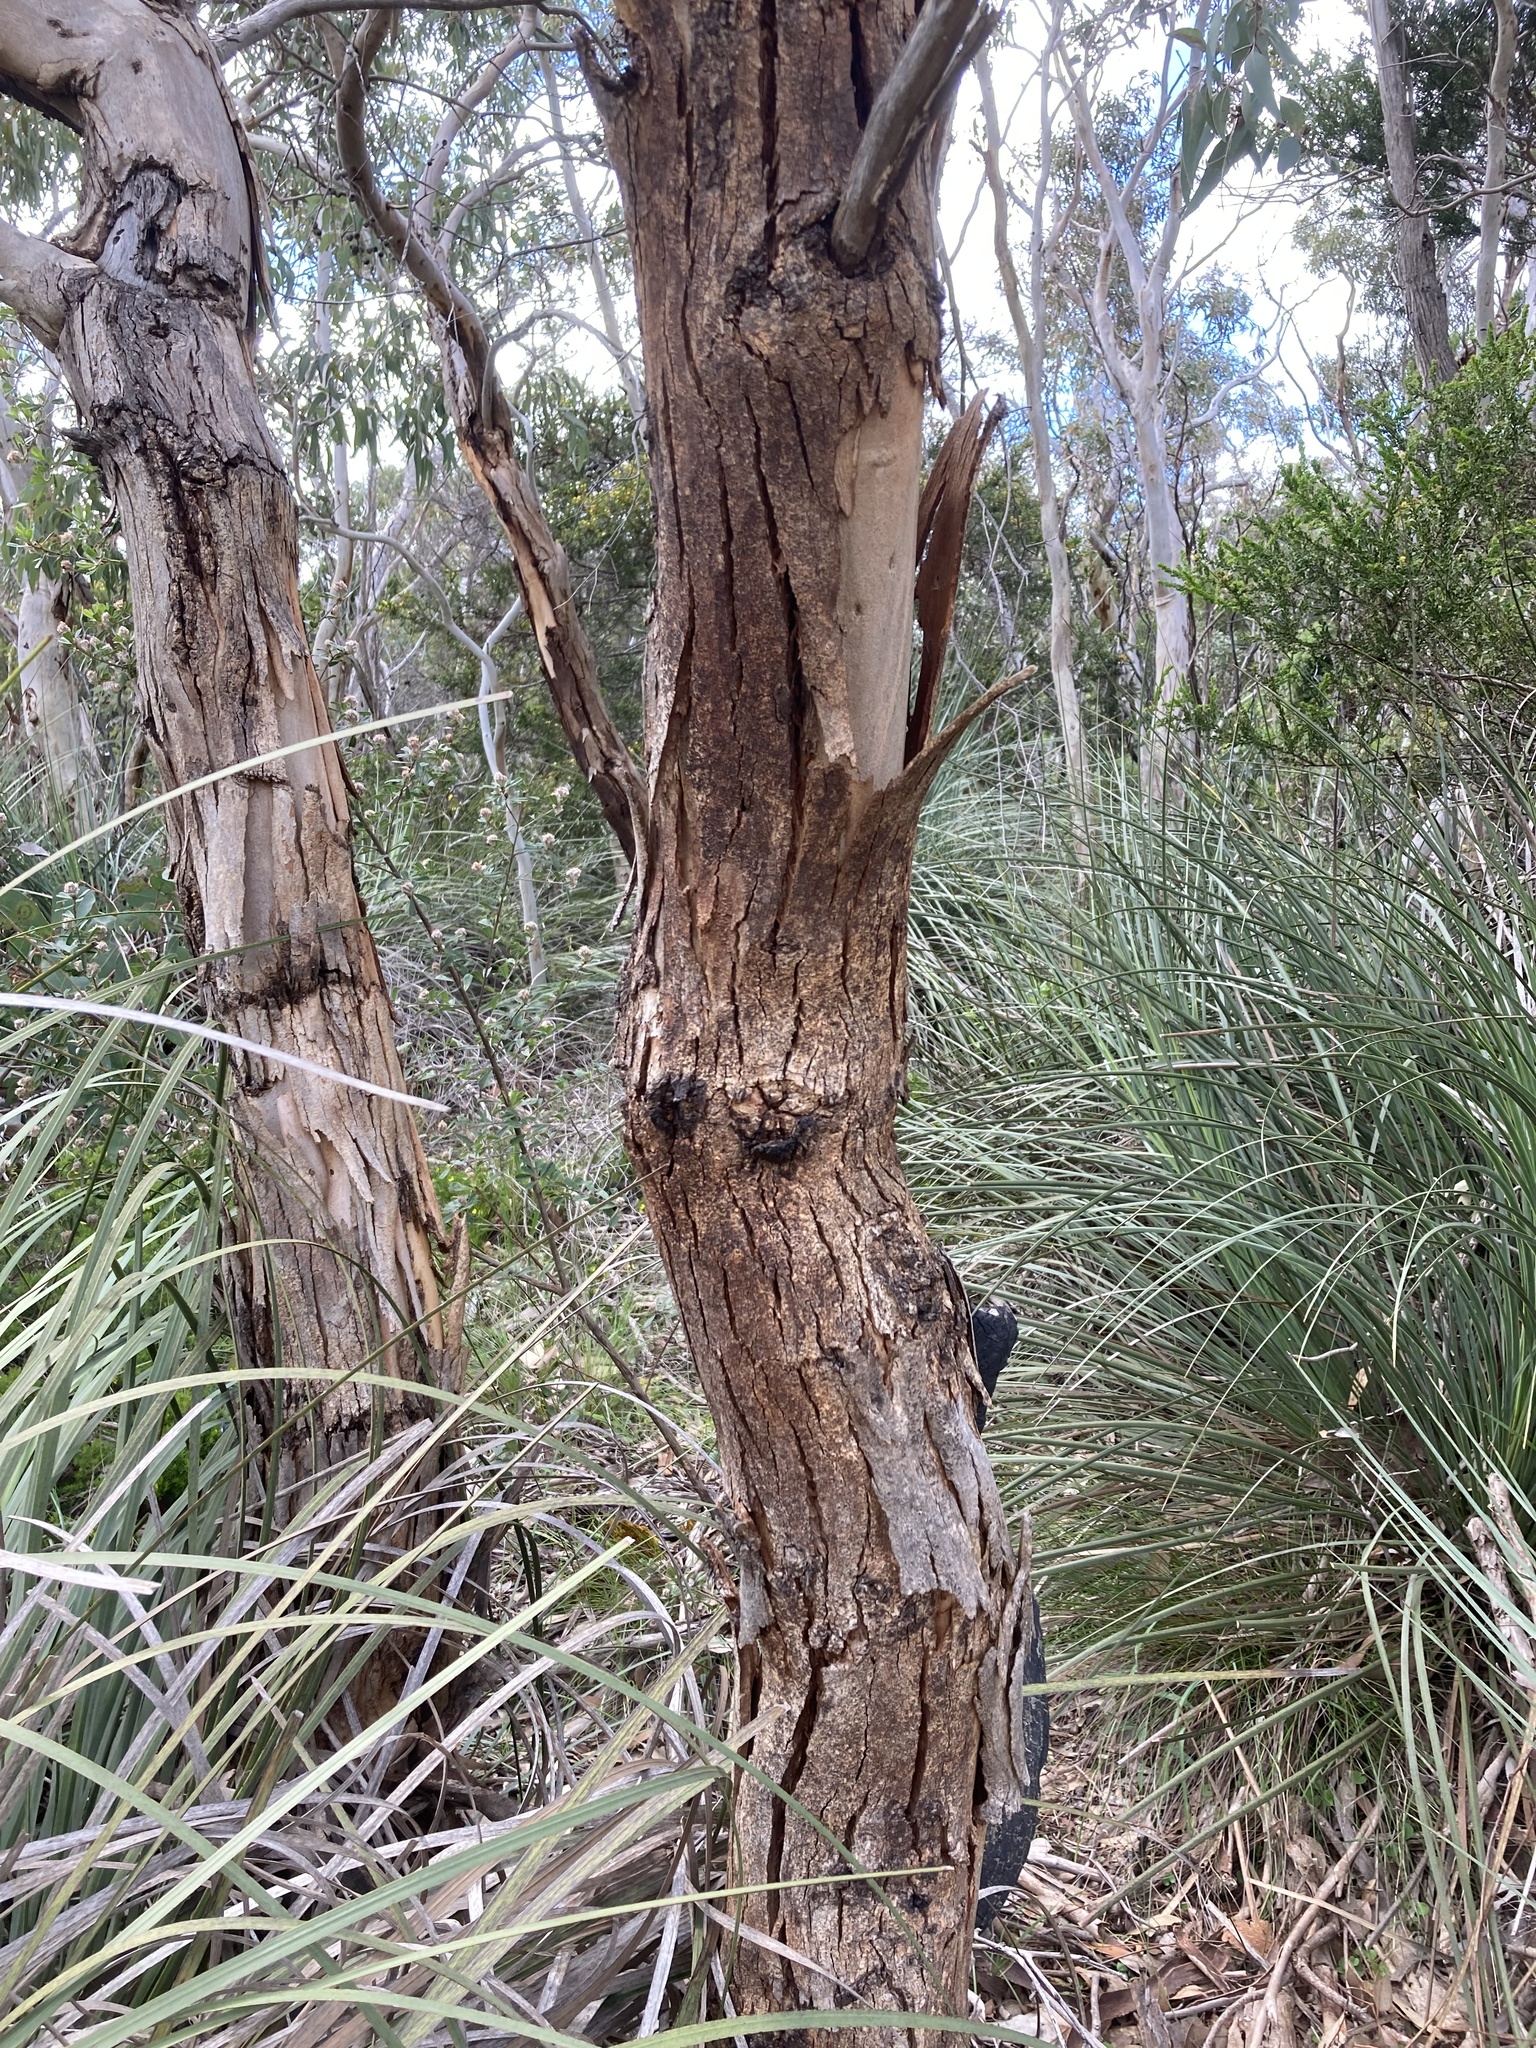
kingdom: Plantae
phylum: Tracheophyta
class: Magnoliopsida
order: Myrtales
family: Myrtaceae
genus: Eucalyptus
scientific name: Eucalyptus cosmophylla
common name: Bog-gum
